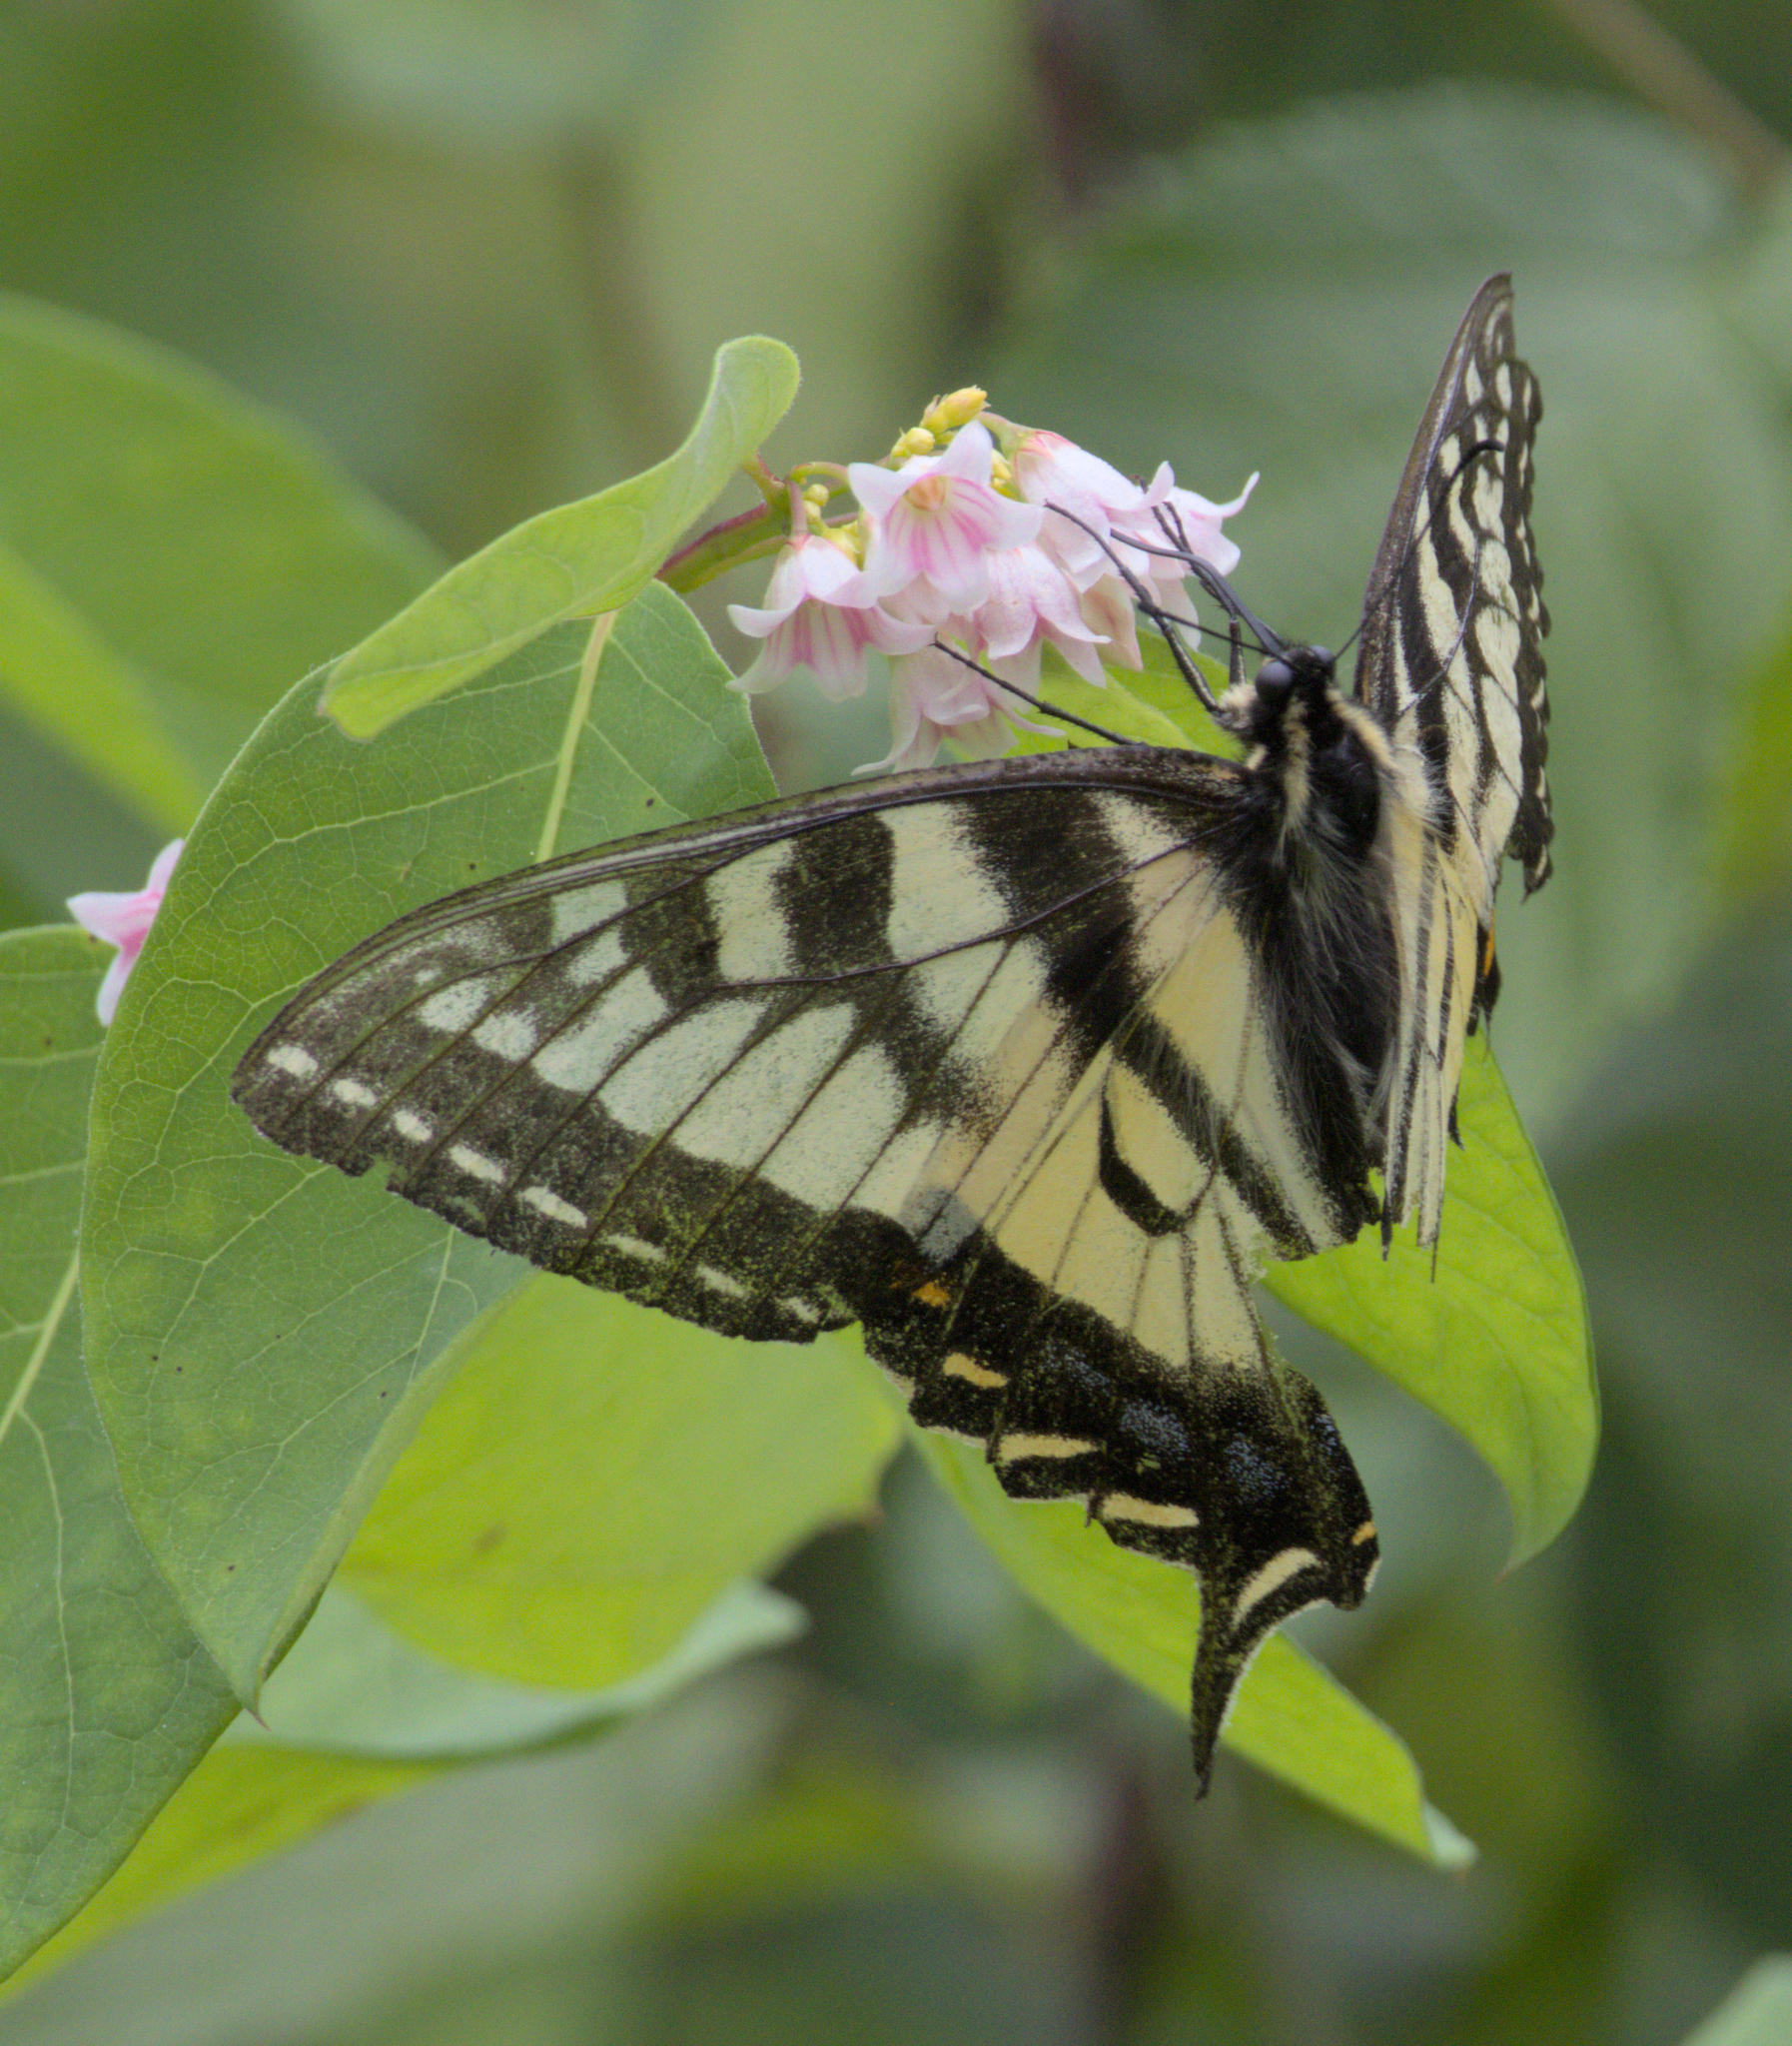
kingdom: Animalia
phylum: Arthropoda
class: Insecta
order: Lepidoptera
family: Papilionidae
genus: Papilio
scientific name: Papilio canadensis
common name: Canadian tiger swallowtail
